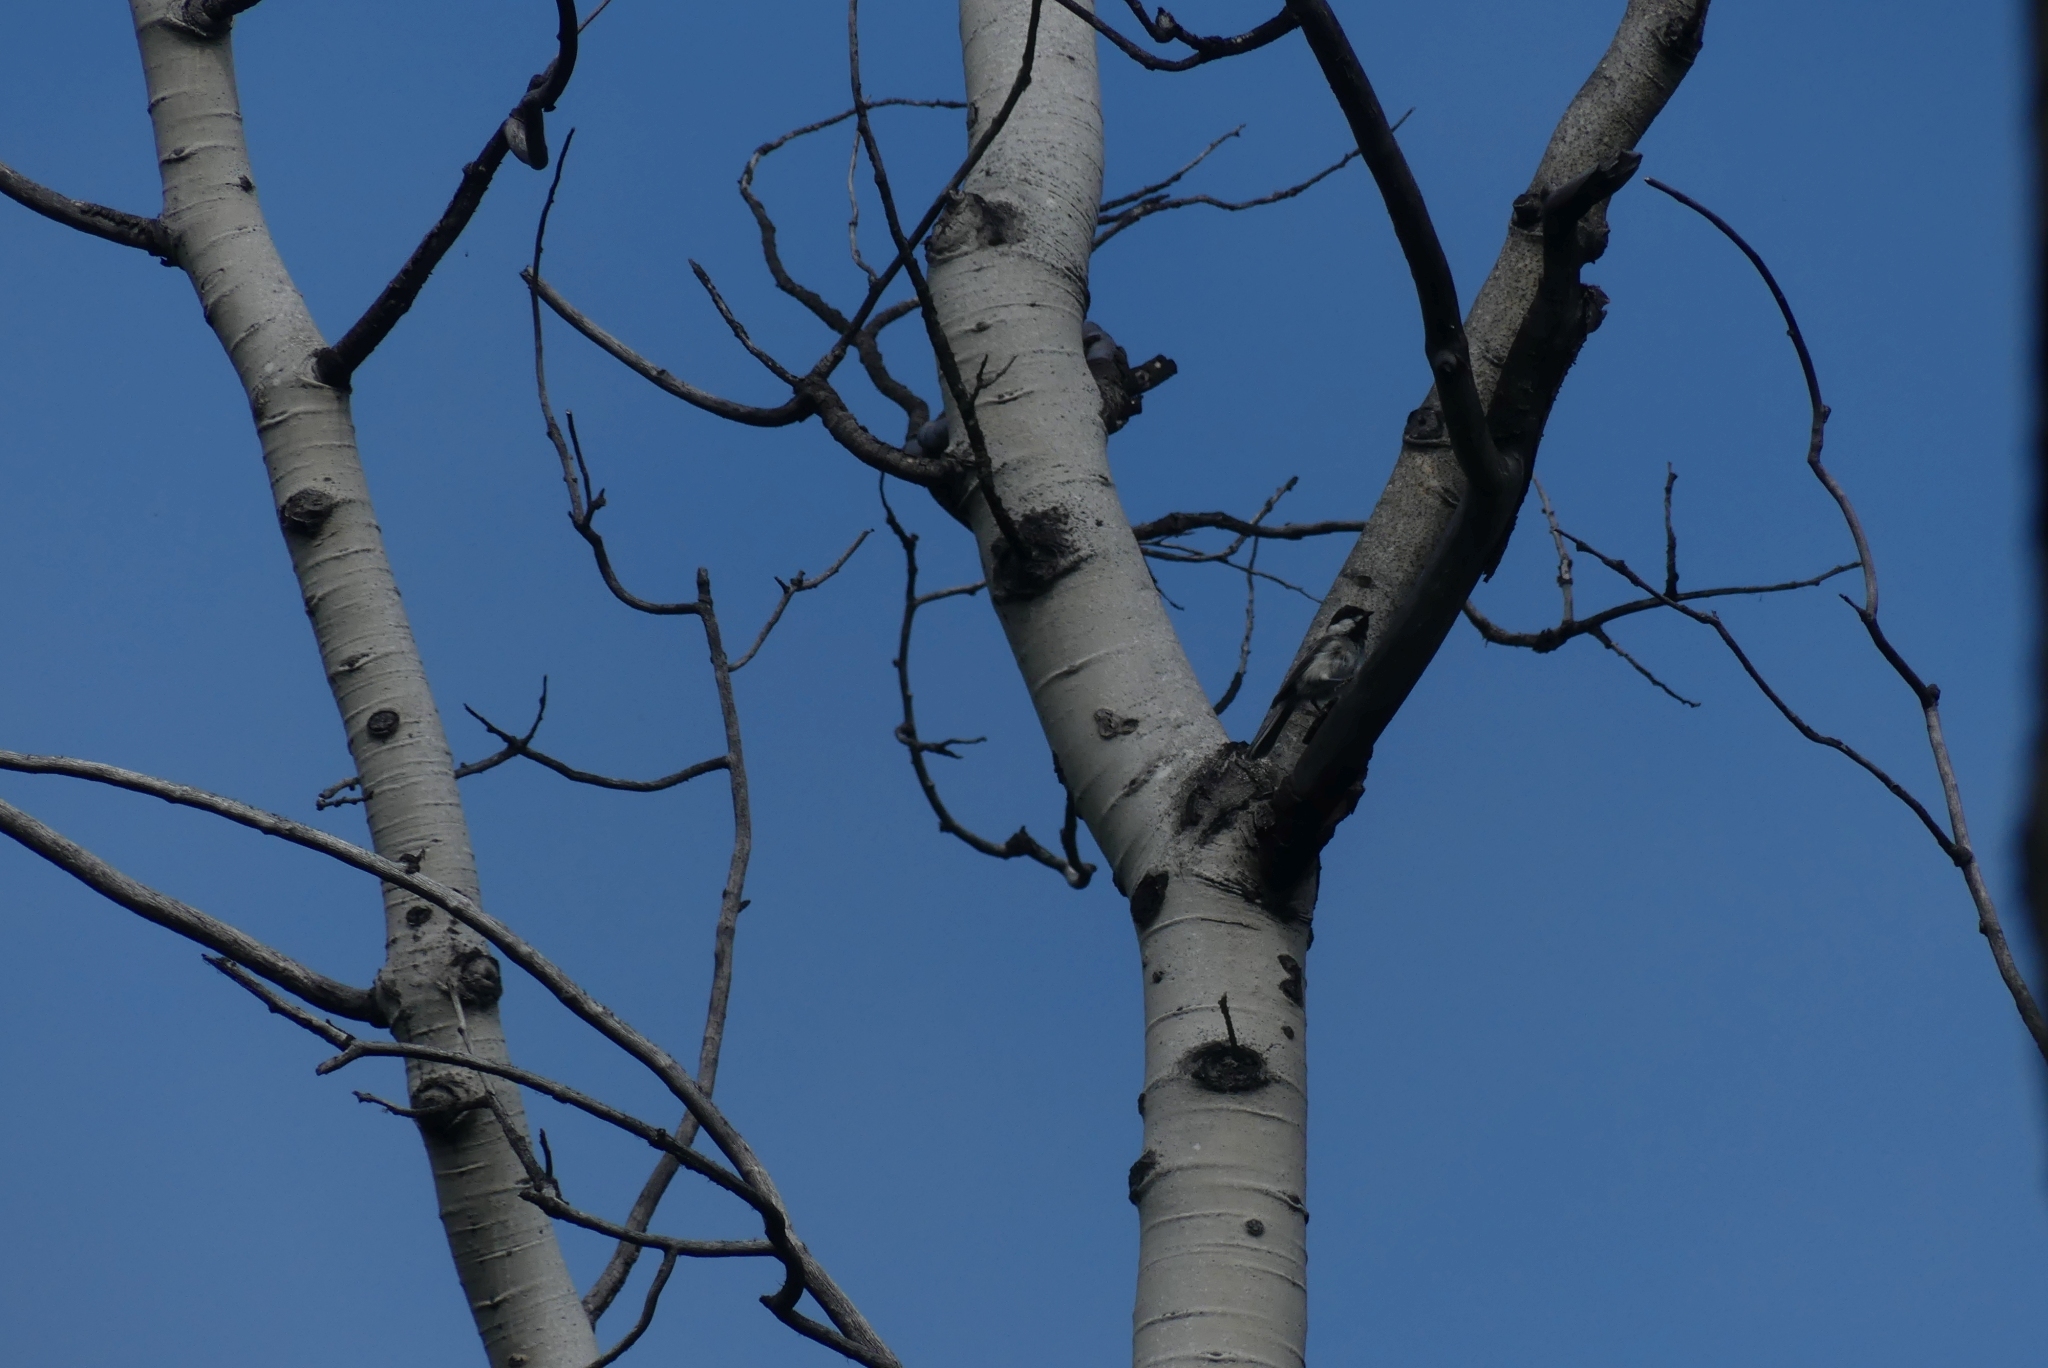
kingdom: Animalia
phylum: Chordata
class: Aves
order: Passeriformes
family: Paridae
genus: Poecile
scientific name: Poecile atricapillus
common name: Black-capped chickadee
